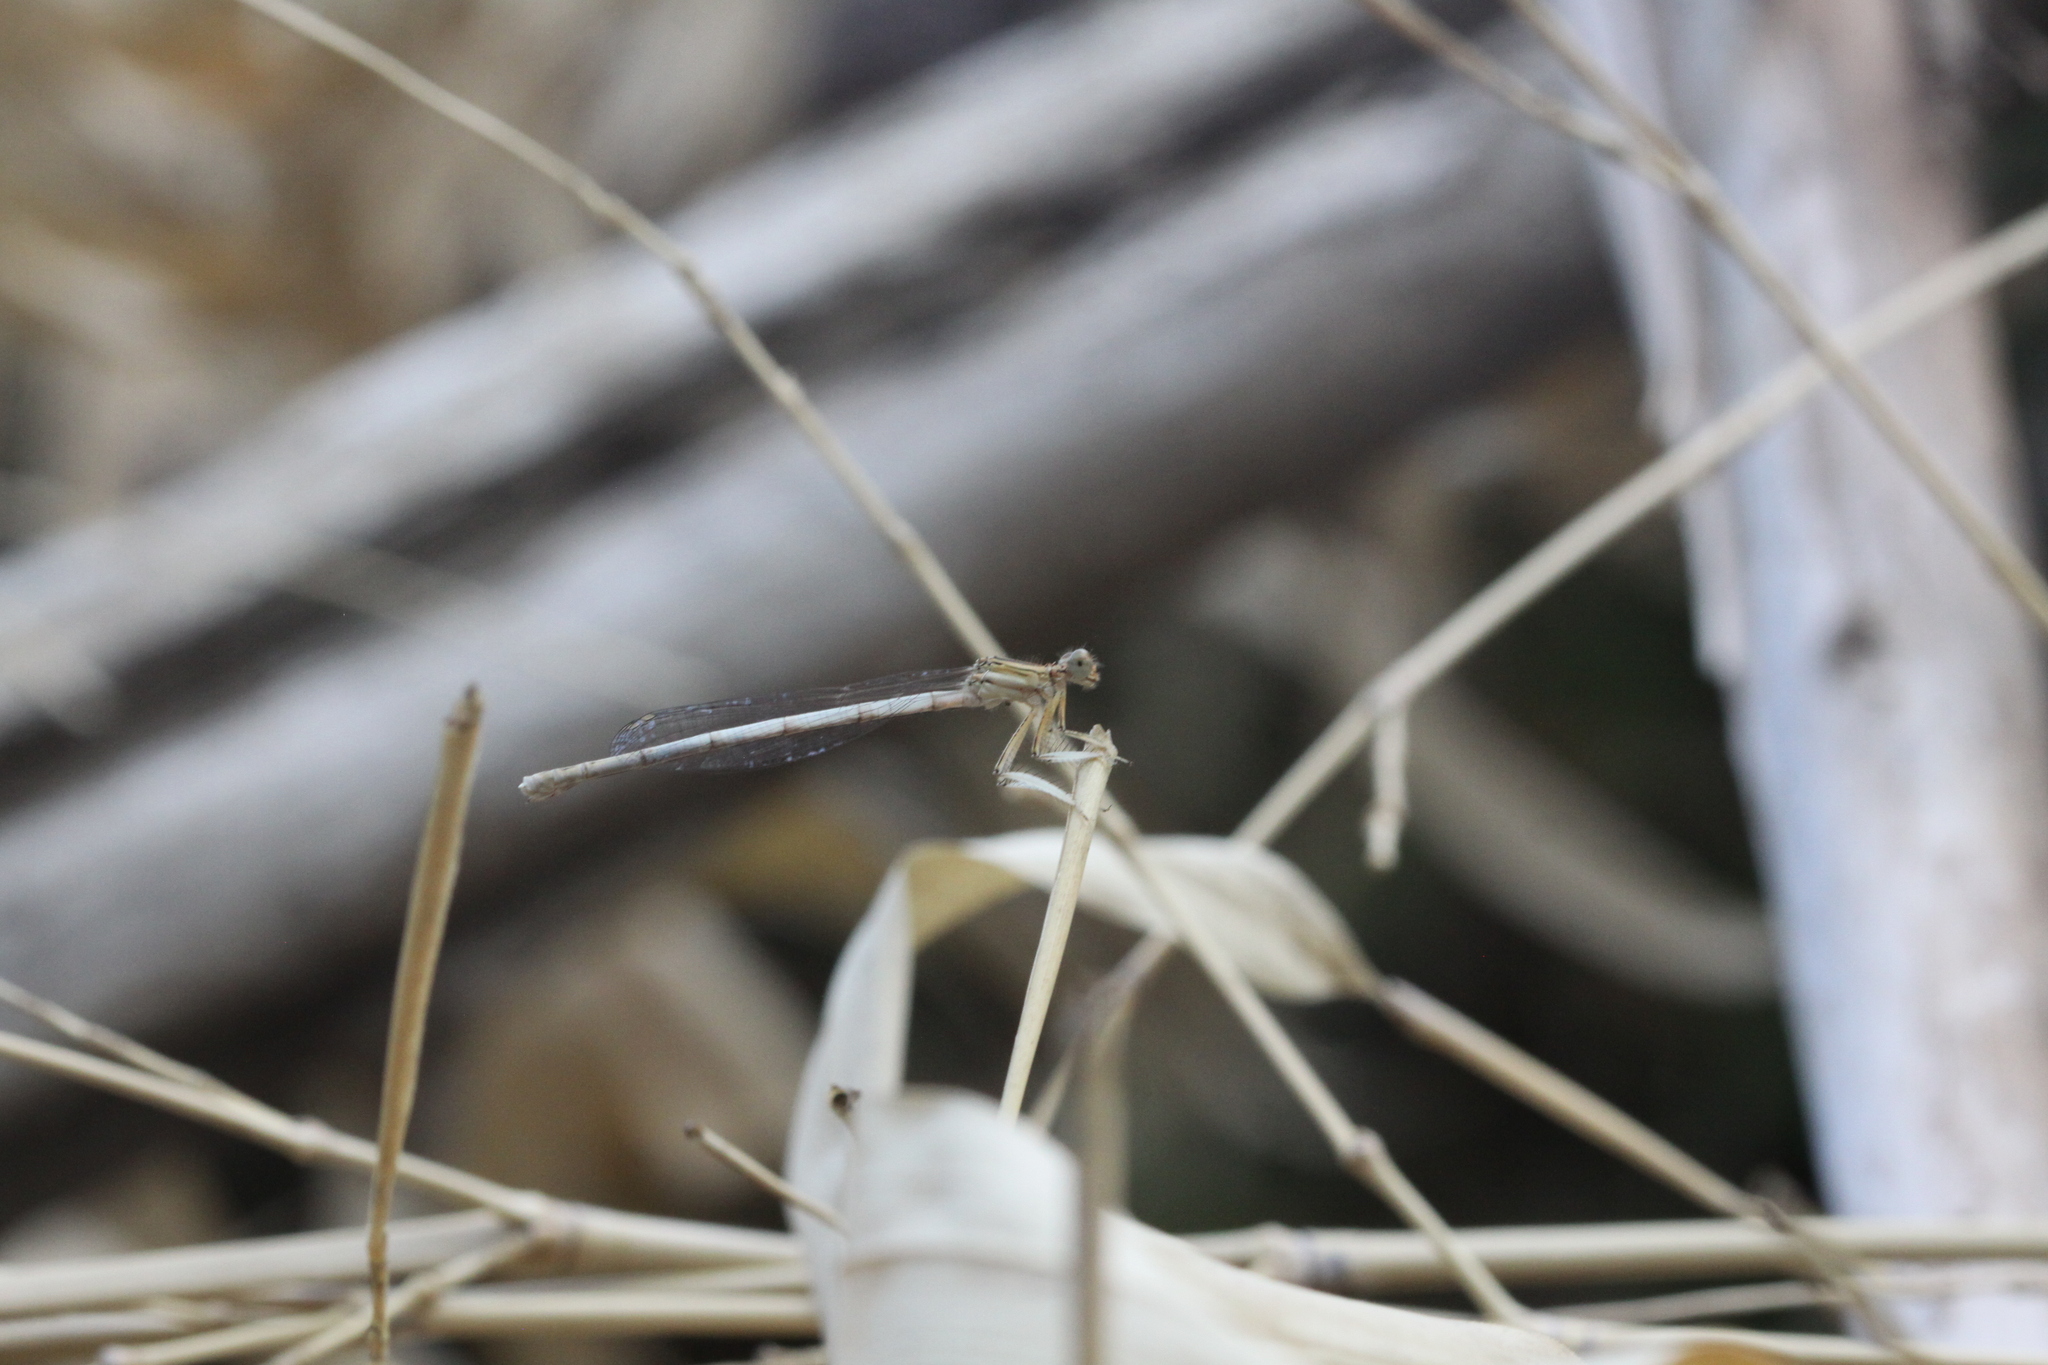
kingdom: Animalia
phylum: Arthropoda
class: Insecta
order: Odonata
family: Platycnemididae
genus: Platycnemis
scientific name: Platycnemis latipes
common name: White featherleg
